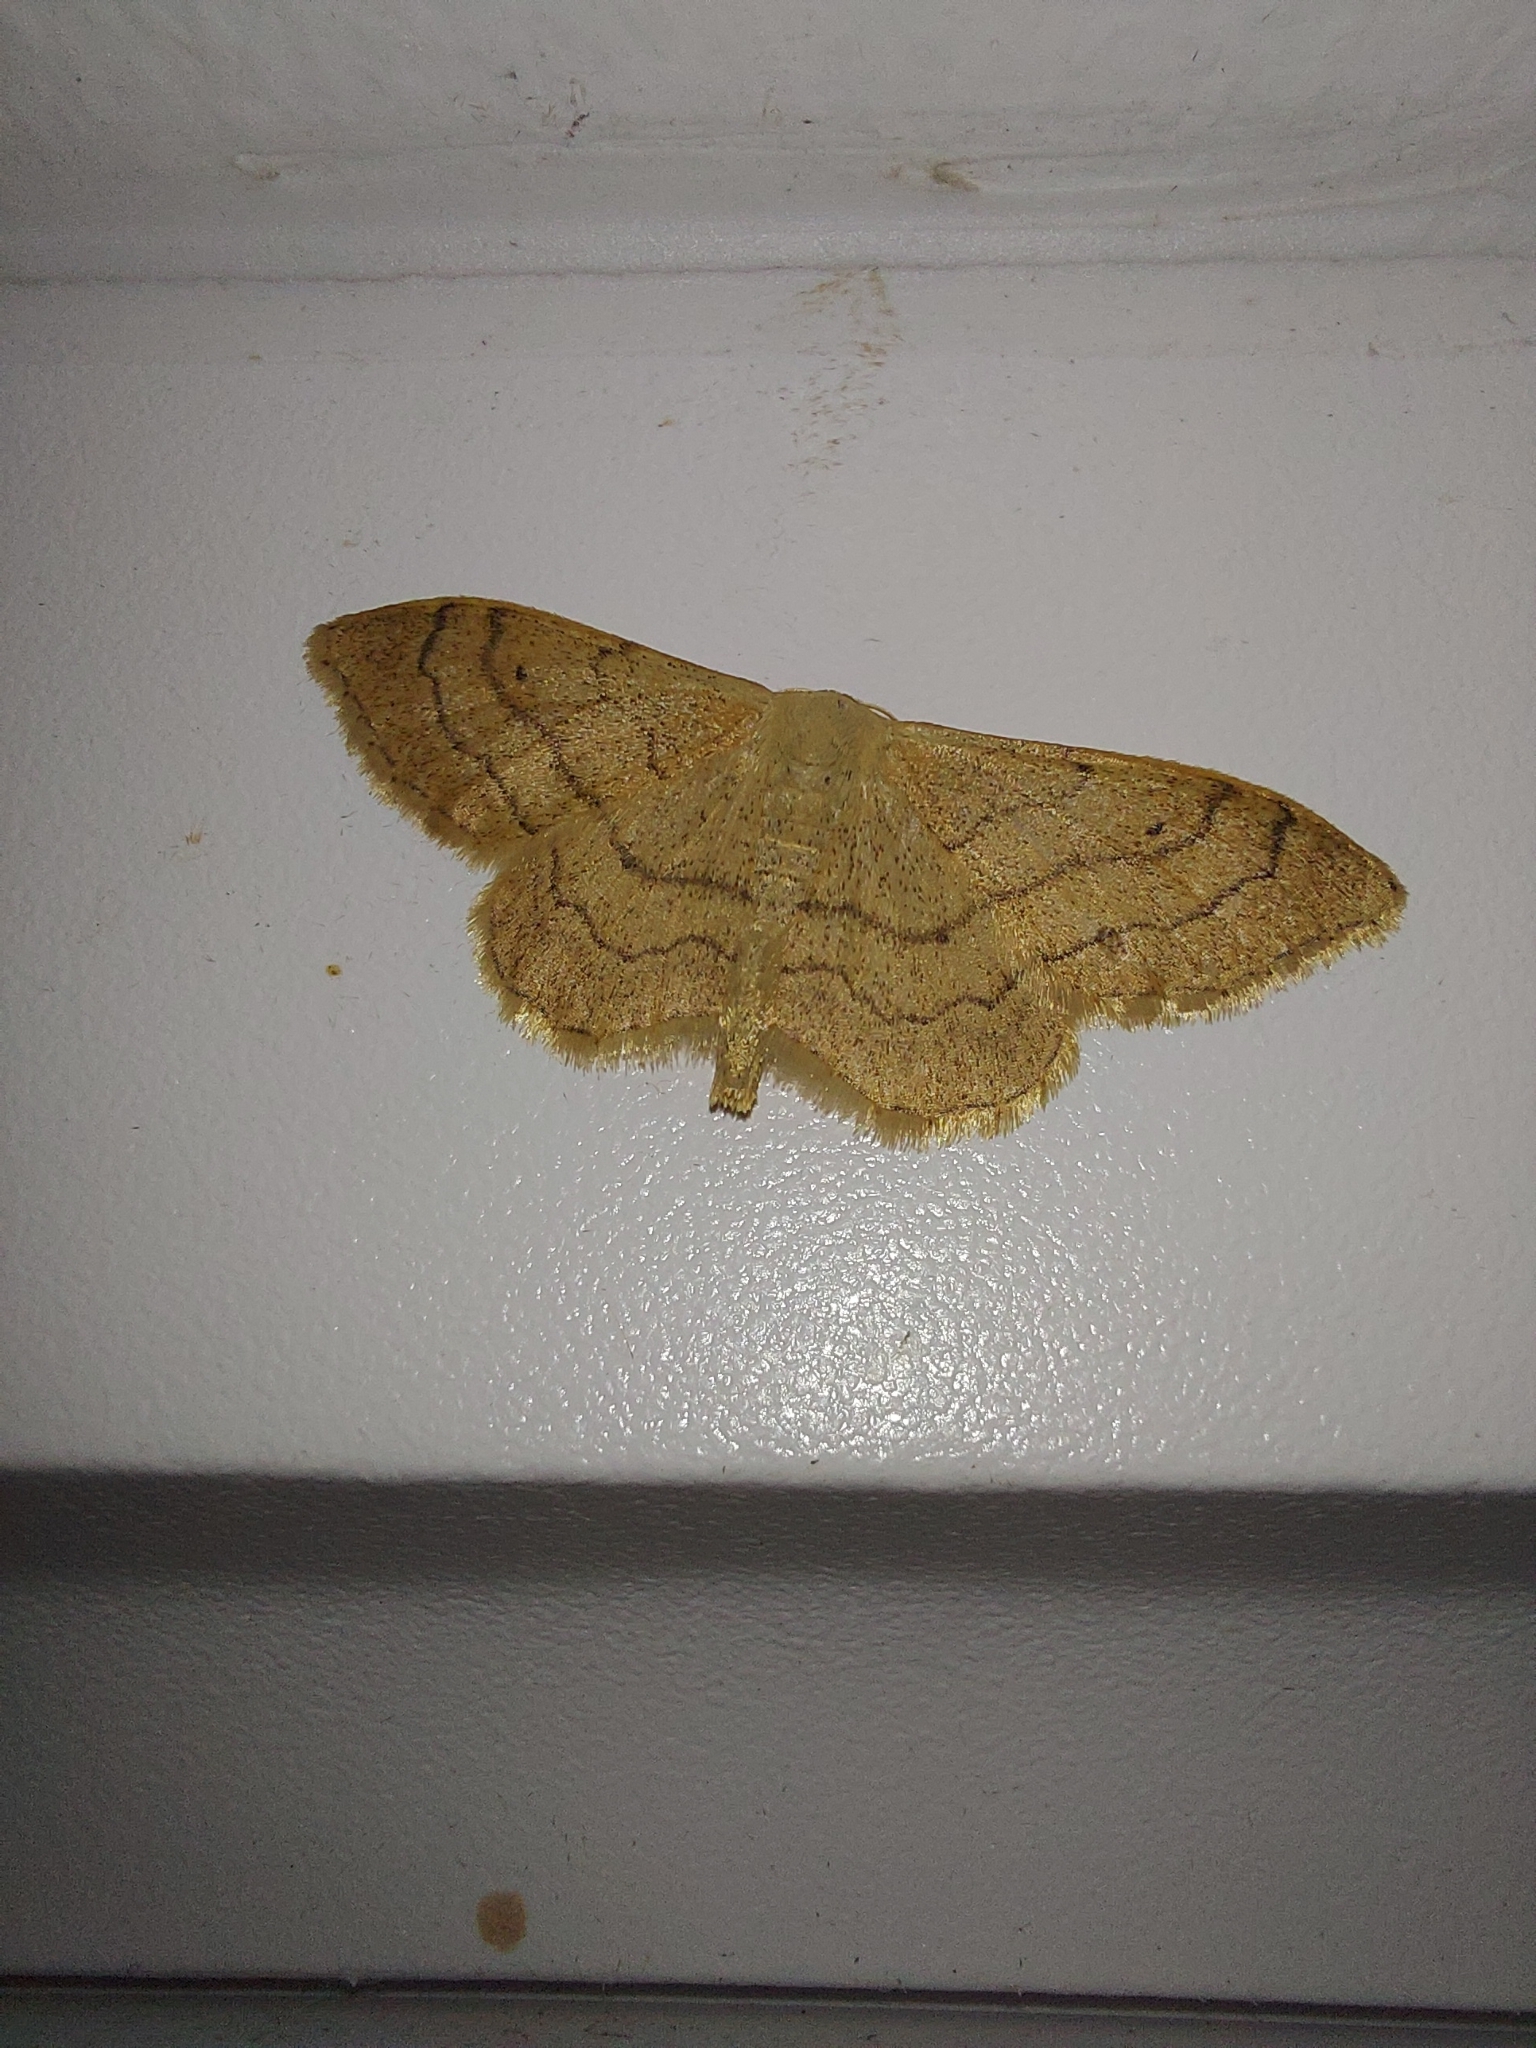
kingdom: Animalia
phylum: Arthropoda
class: Insecta
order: Lepidoptera
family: Geometridae
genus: Idaea
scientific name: Idaea aversata
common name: Riband wave
